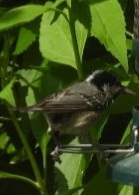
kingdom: Animalia
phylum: Chordata
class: Aves
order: Passeriformes
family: Paridae
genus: Periparus
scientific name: Periparus ater
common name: Coal tit
